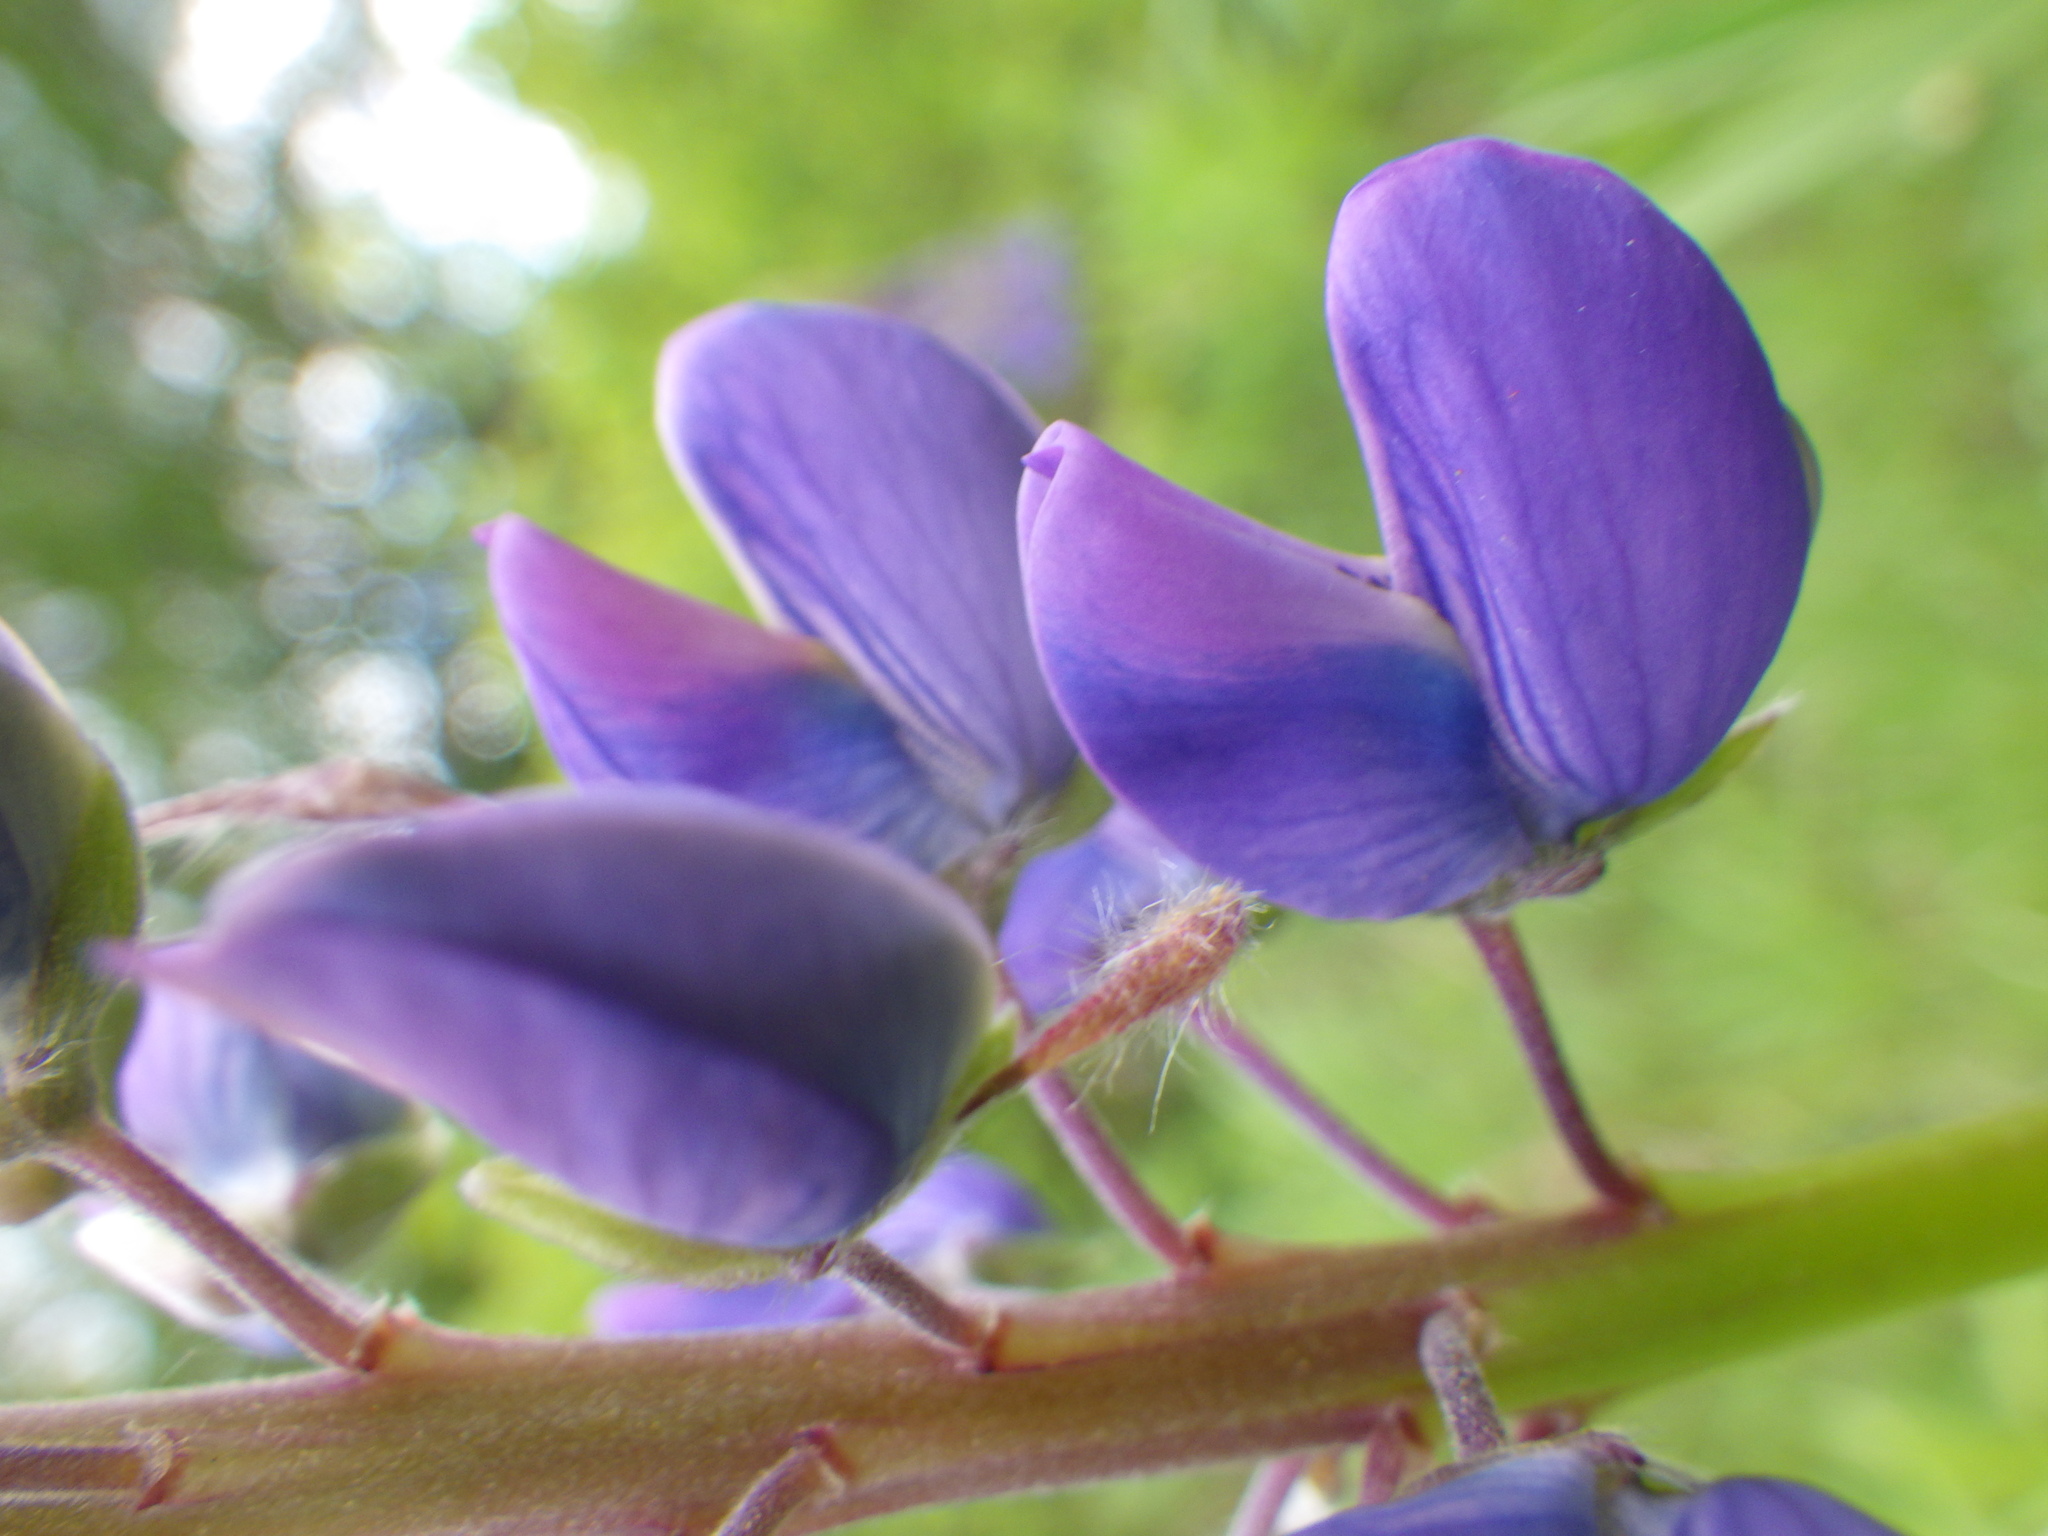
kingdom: Plantae
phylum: Tracheophyta
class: Magnoliopsida
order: Fabales
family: Fabaceae
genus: Lupinus
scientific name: Lupinus polyphyllus
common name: Garden lupin
